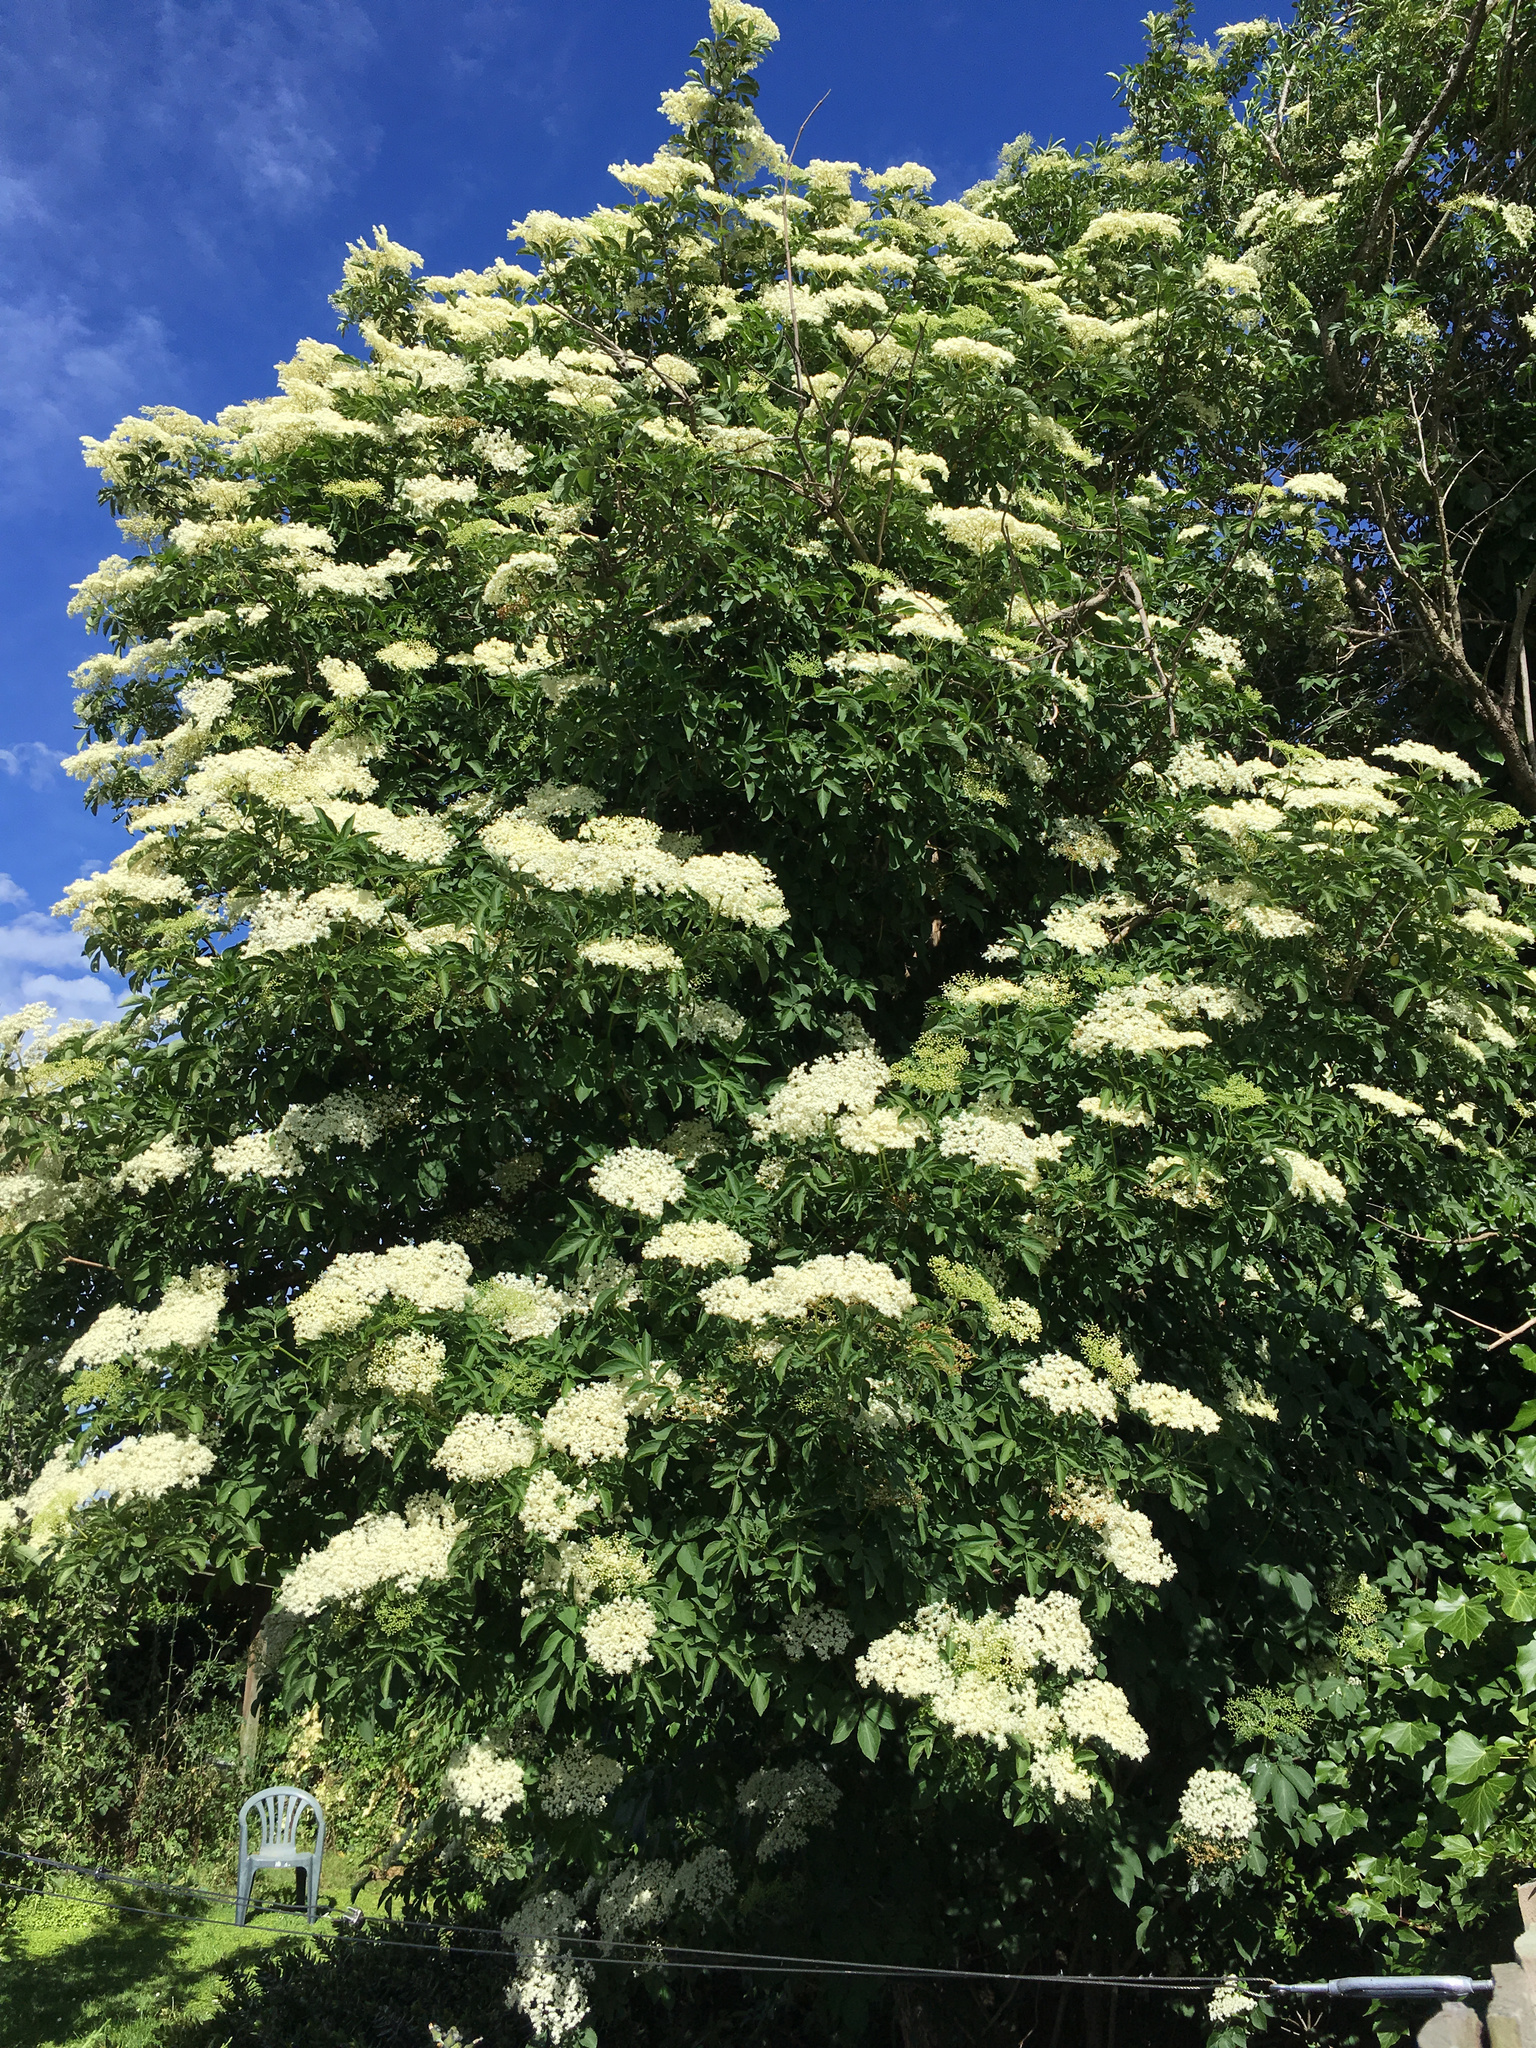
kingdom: Plantae
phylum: Tracheophyta
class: Magnoliopsida
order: Dipsacales
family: Viburnaceae
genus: Sambucus
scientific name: Sambucus nigra
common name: Elder
